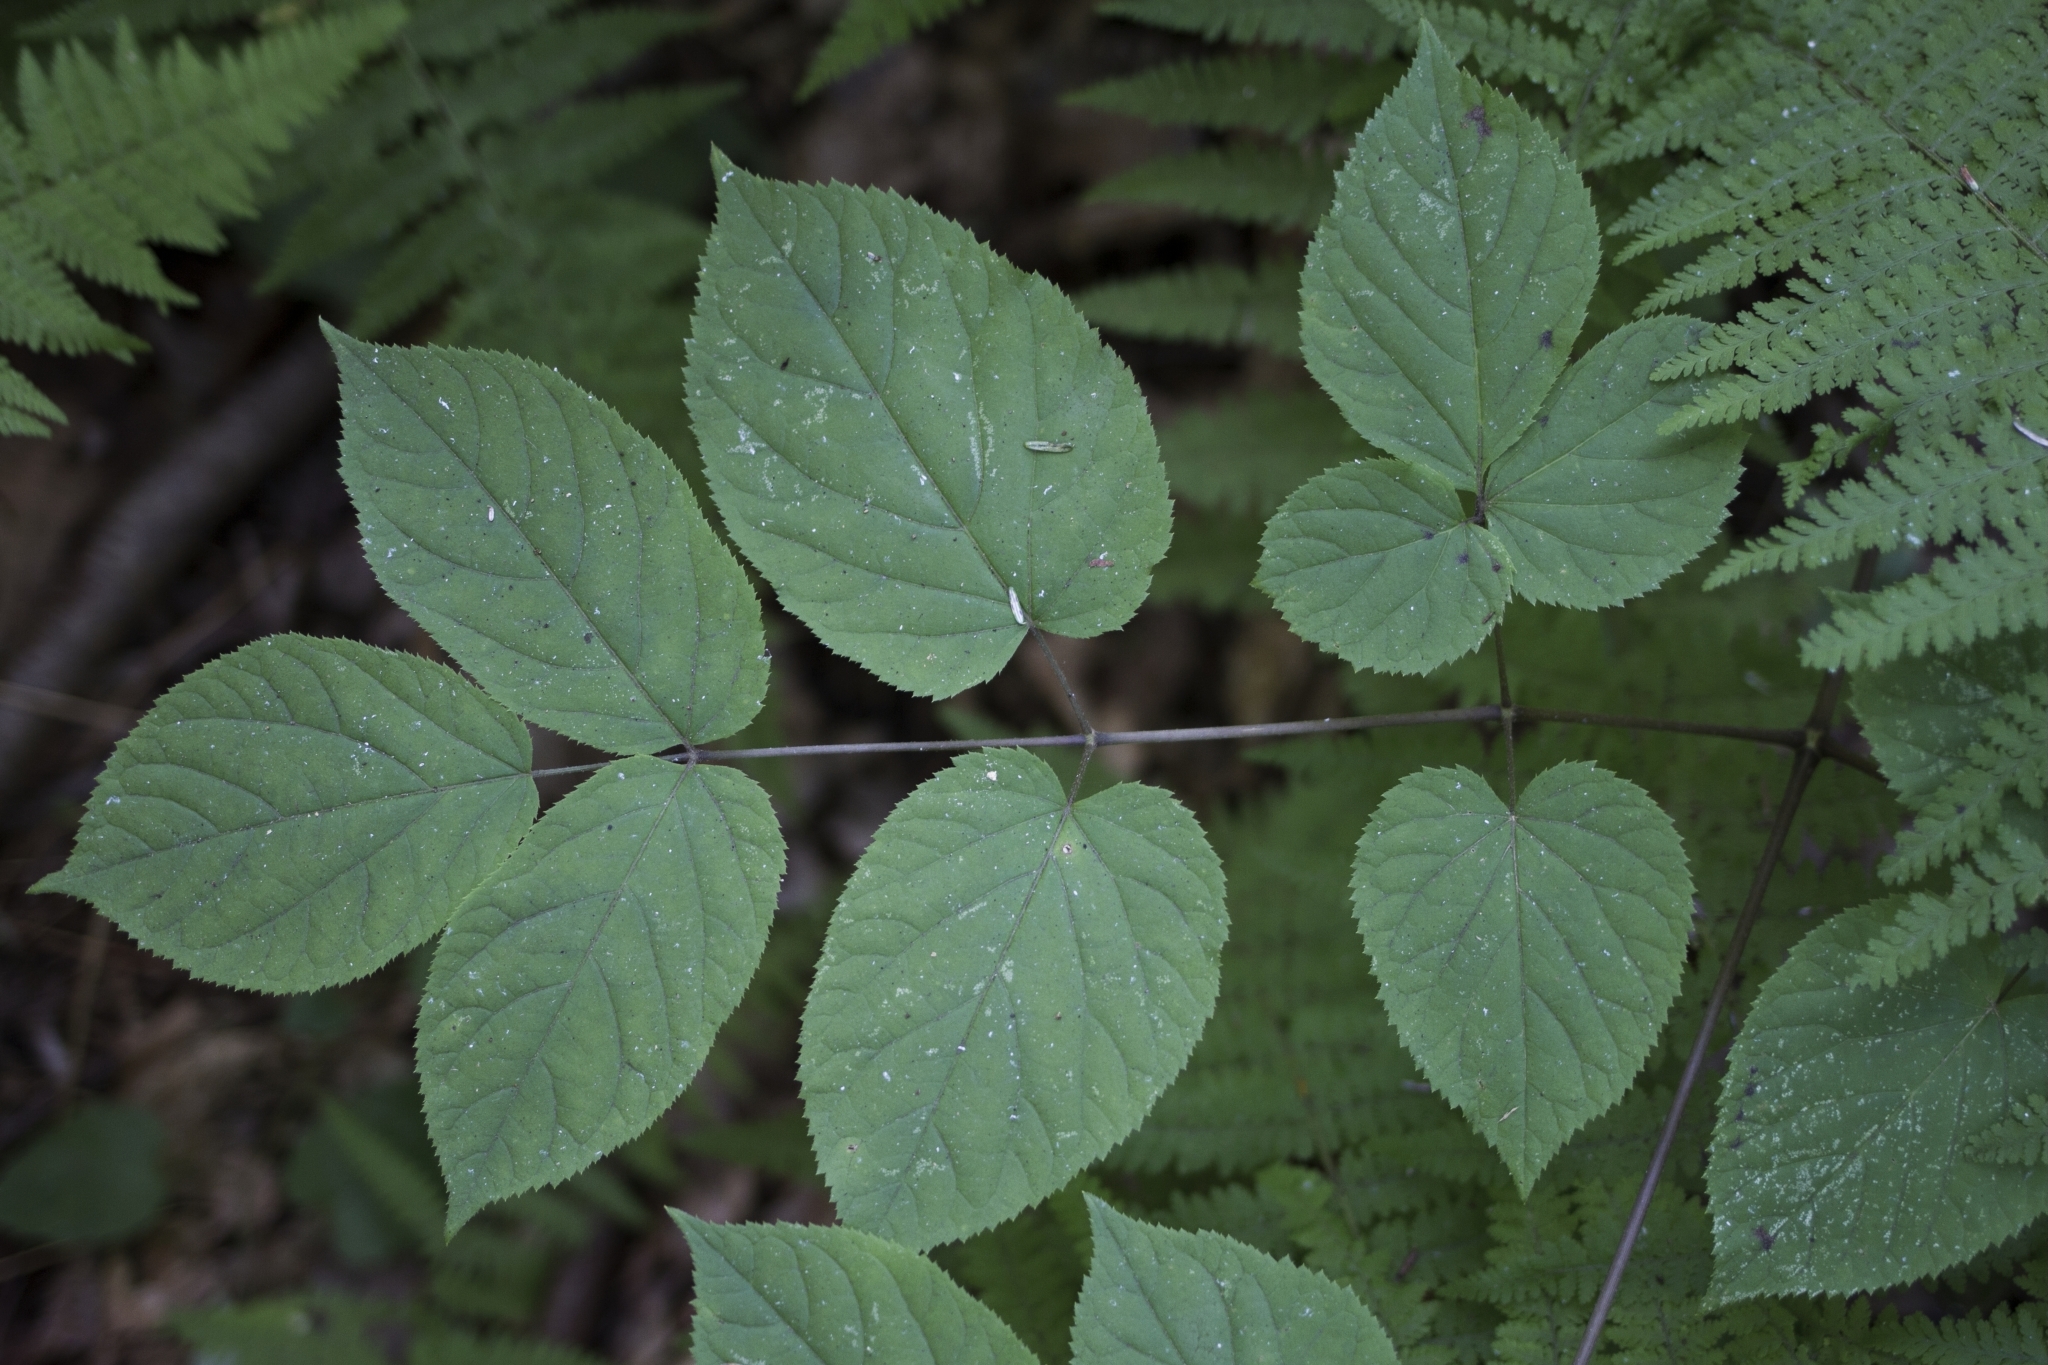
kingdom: Plantae
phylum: Tracheophyta
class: Magnoliopsida
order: Apiales
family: Araliaceae
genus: Aralia
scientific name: Aralia racemosa
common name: American-spikenard
